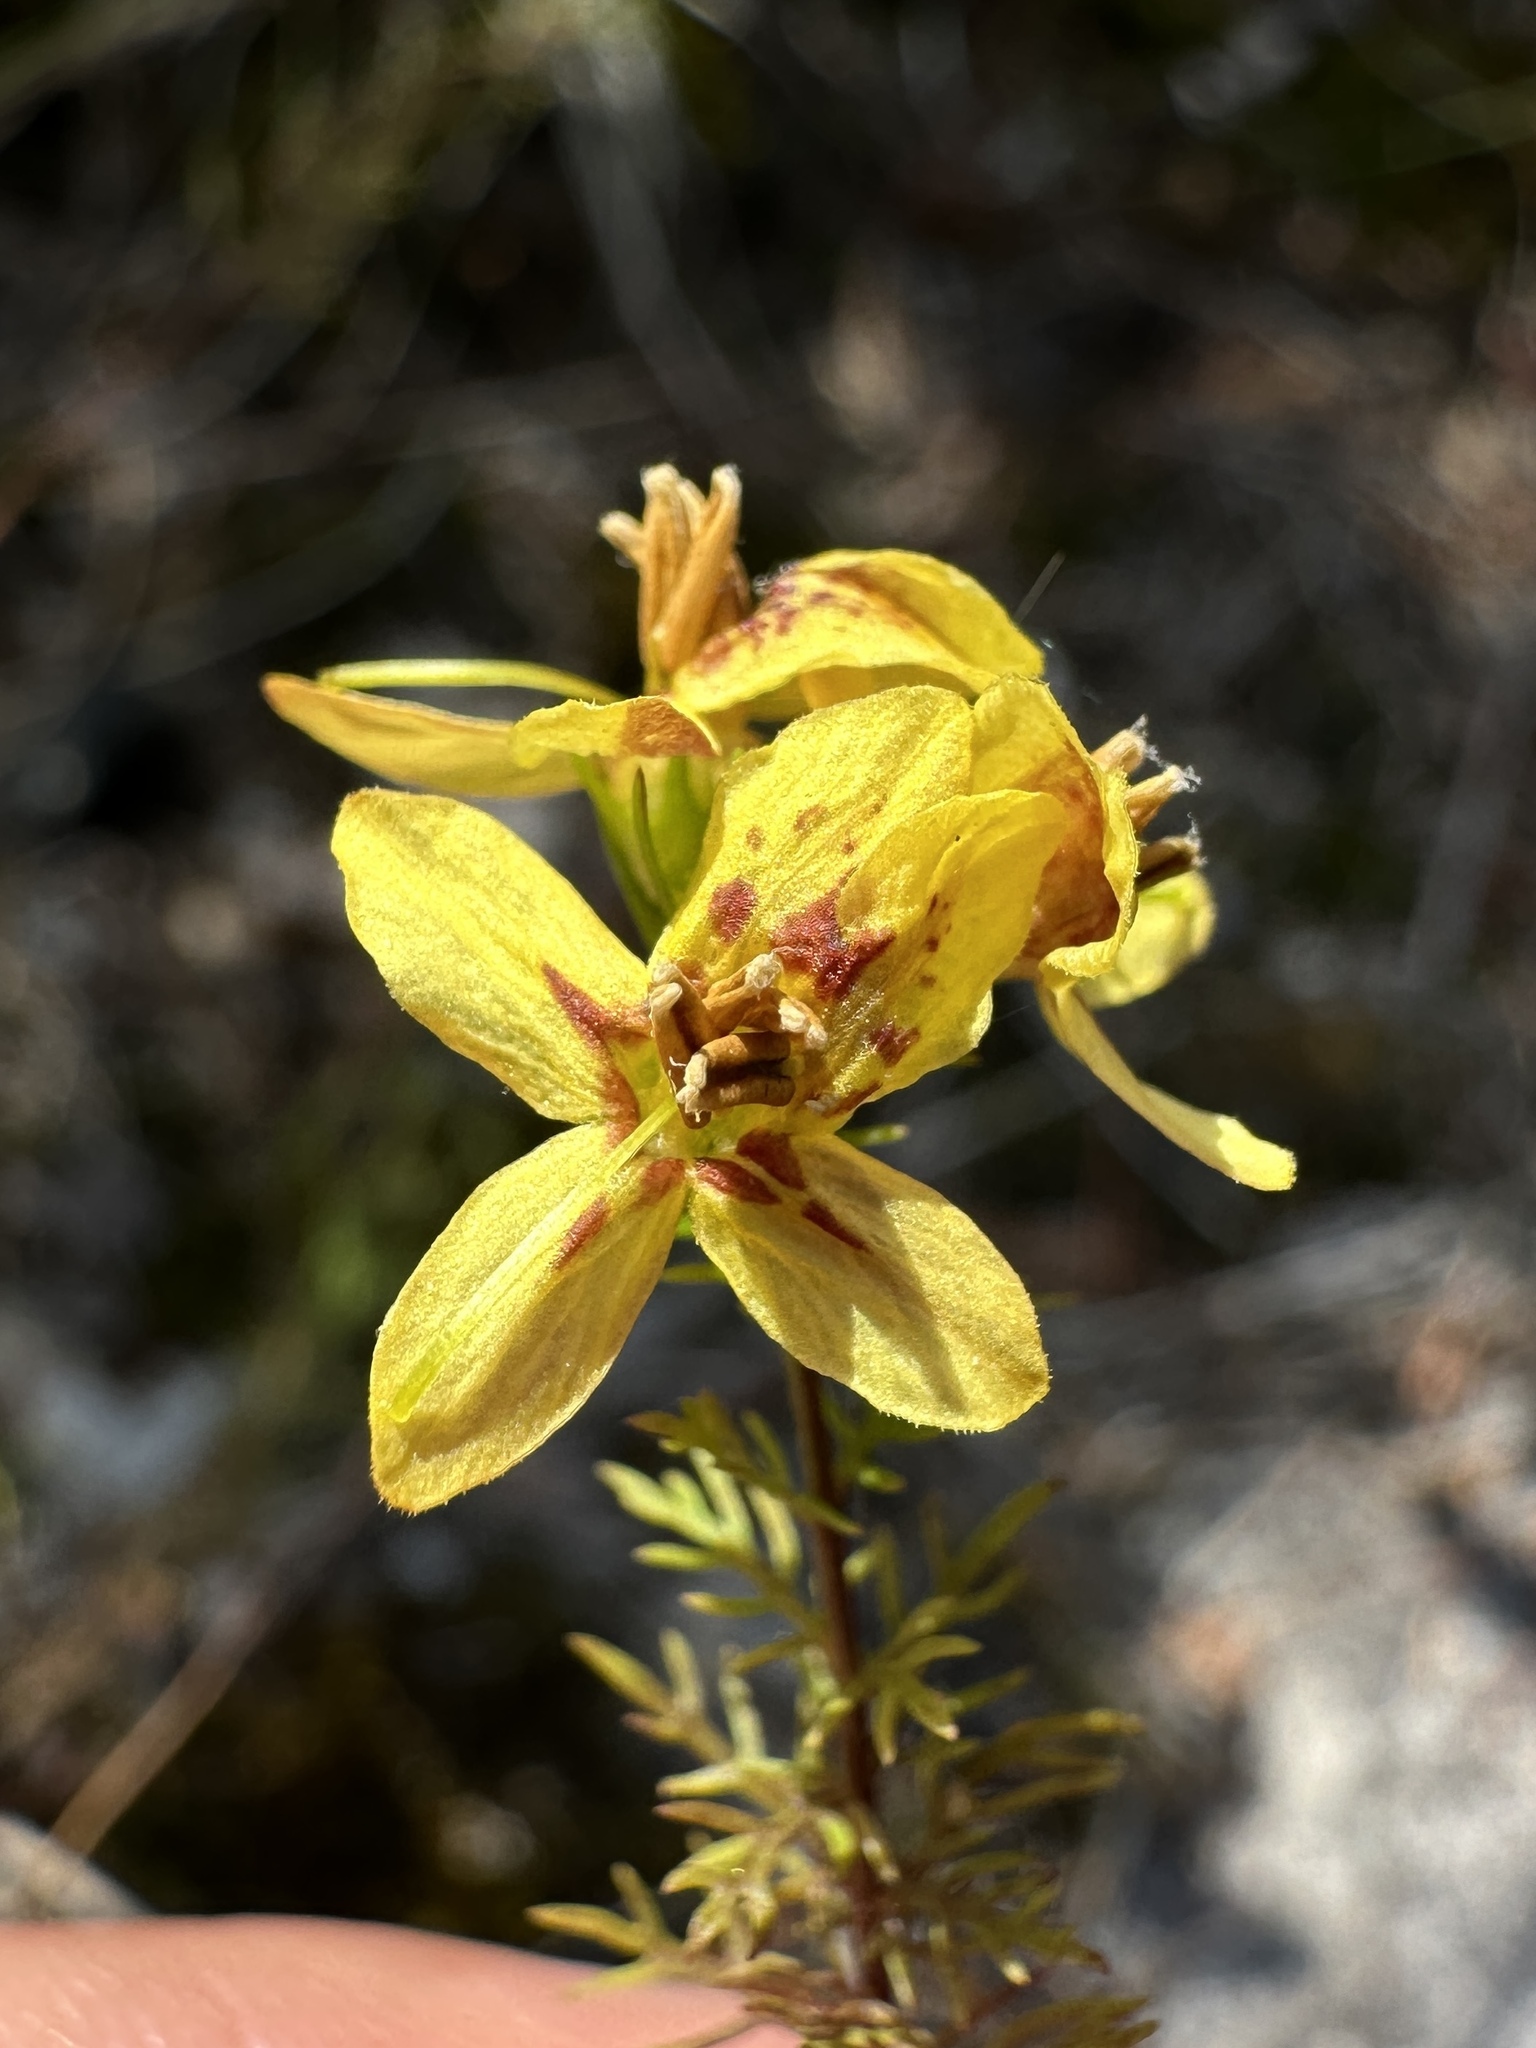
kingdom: Plantae
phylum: Tracheophyta
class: Magnoliopsida
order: Lamiales
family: Orobanchaceae
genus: Seymeria
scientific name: Seymeria cassioides
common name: Yaupon black-senna
